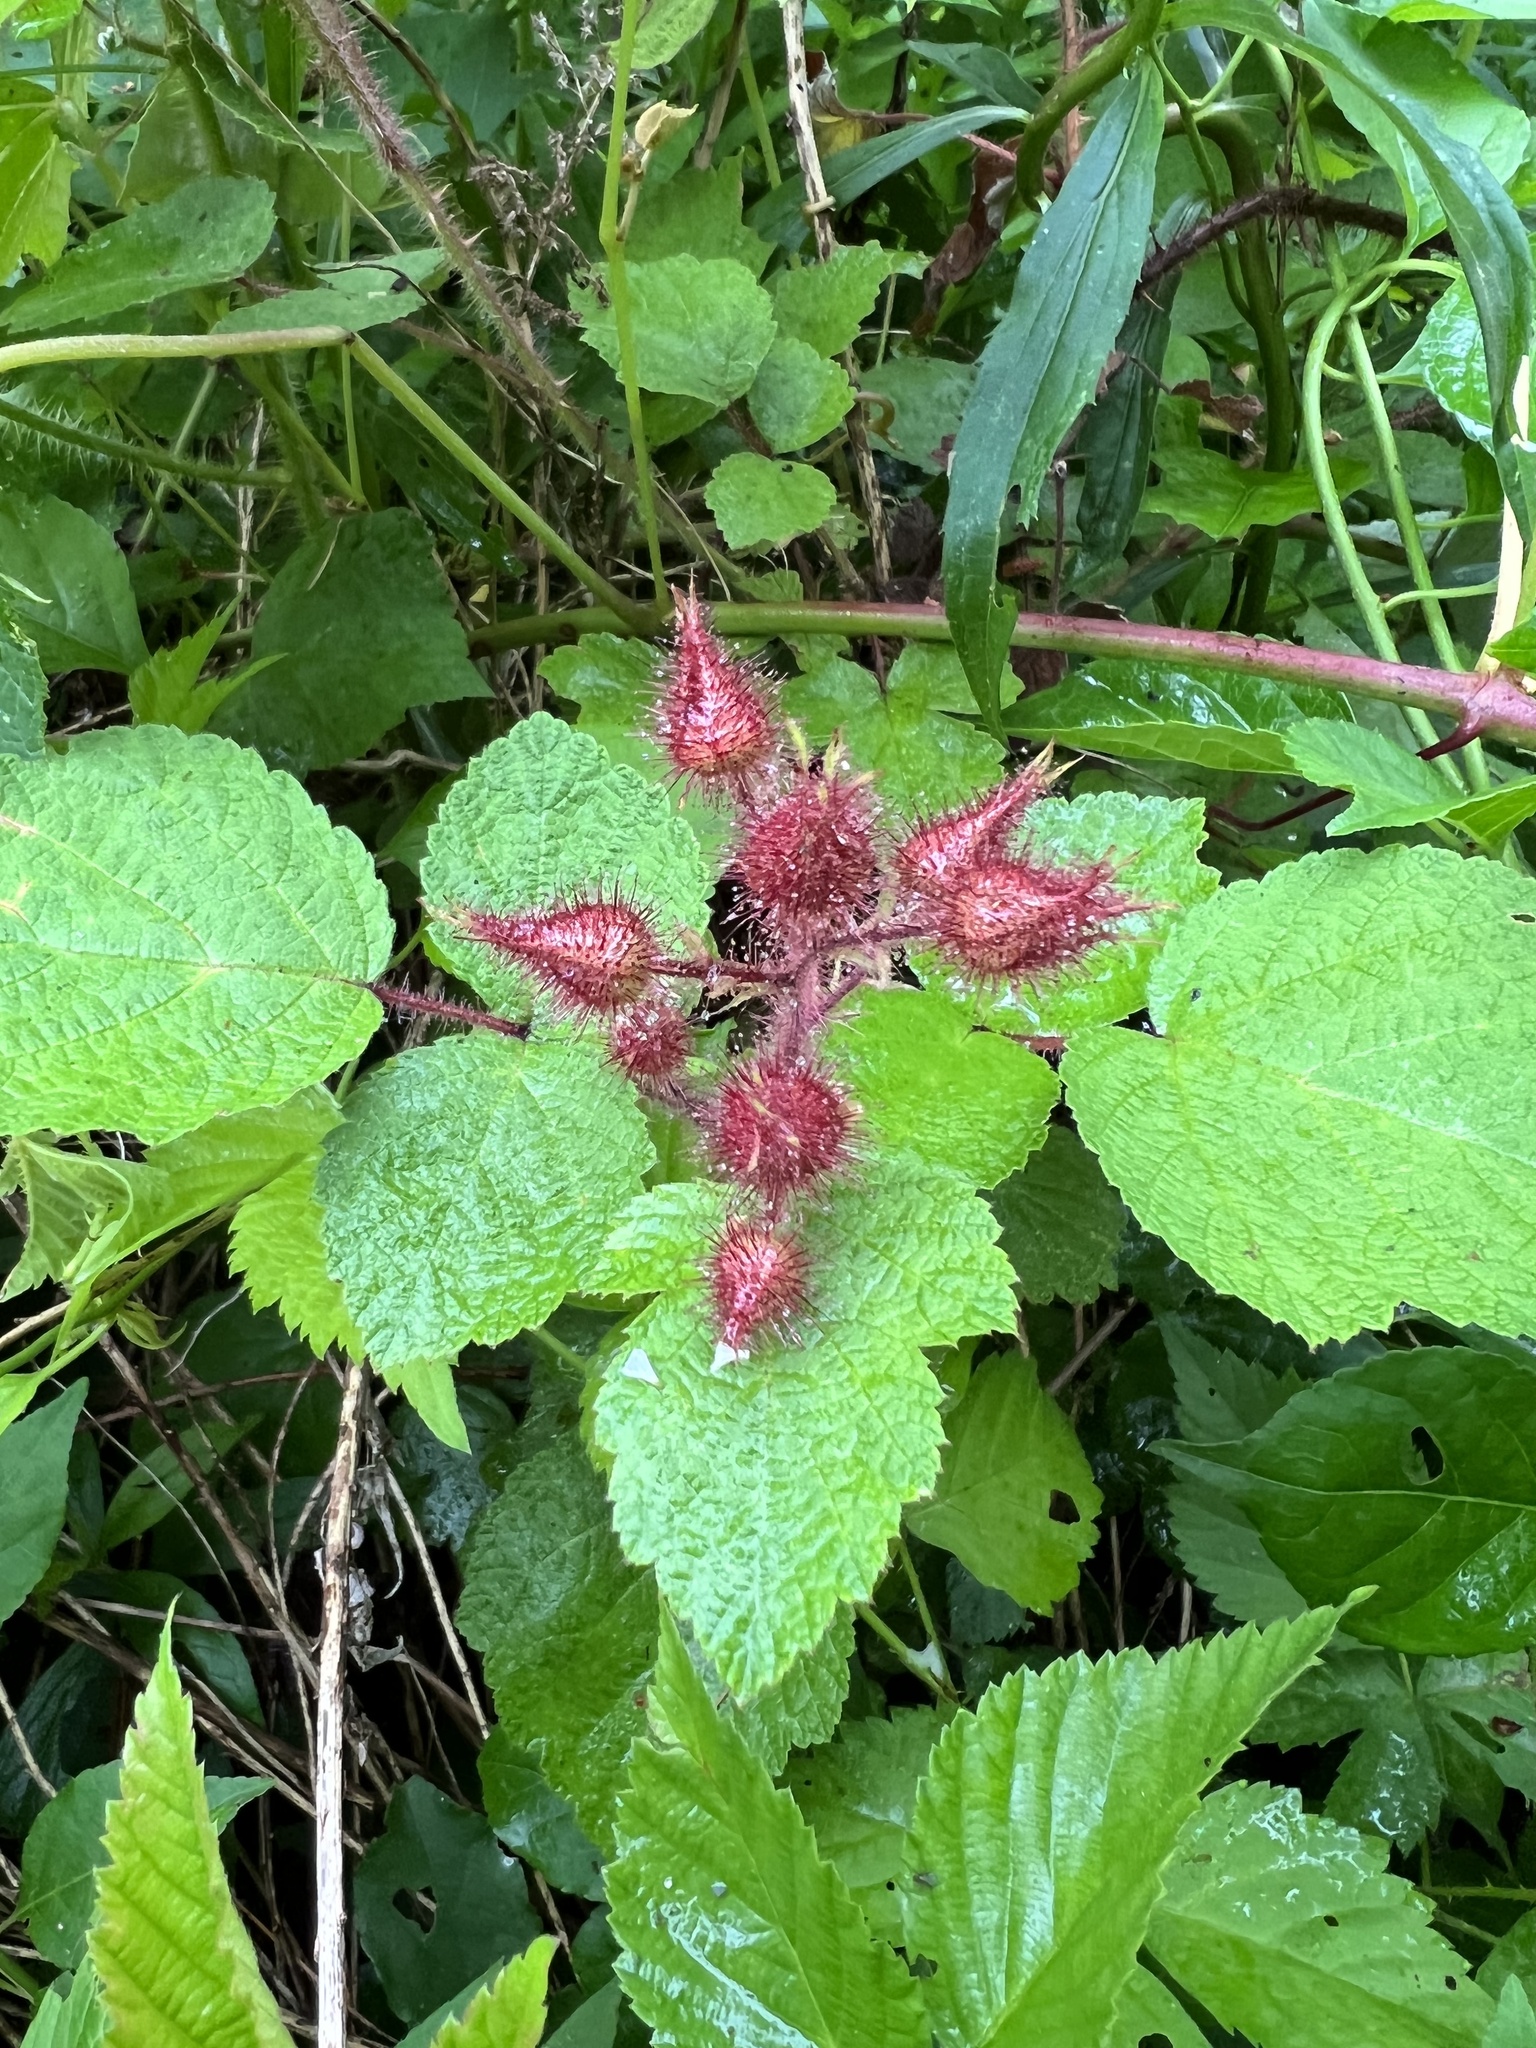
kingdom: Plantae
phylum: Tracheophyta
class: Magnoliopsida
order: Rosales
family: Rosaceae
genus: Rubus
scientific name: Rubus phoenicolasius
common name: Japanese wineberry
